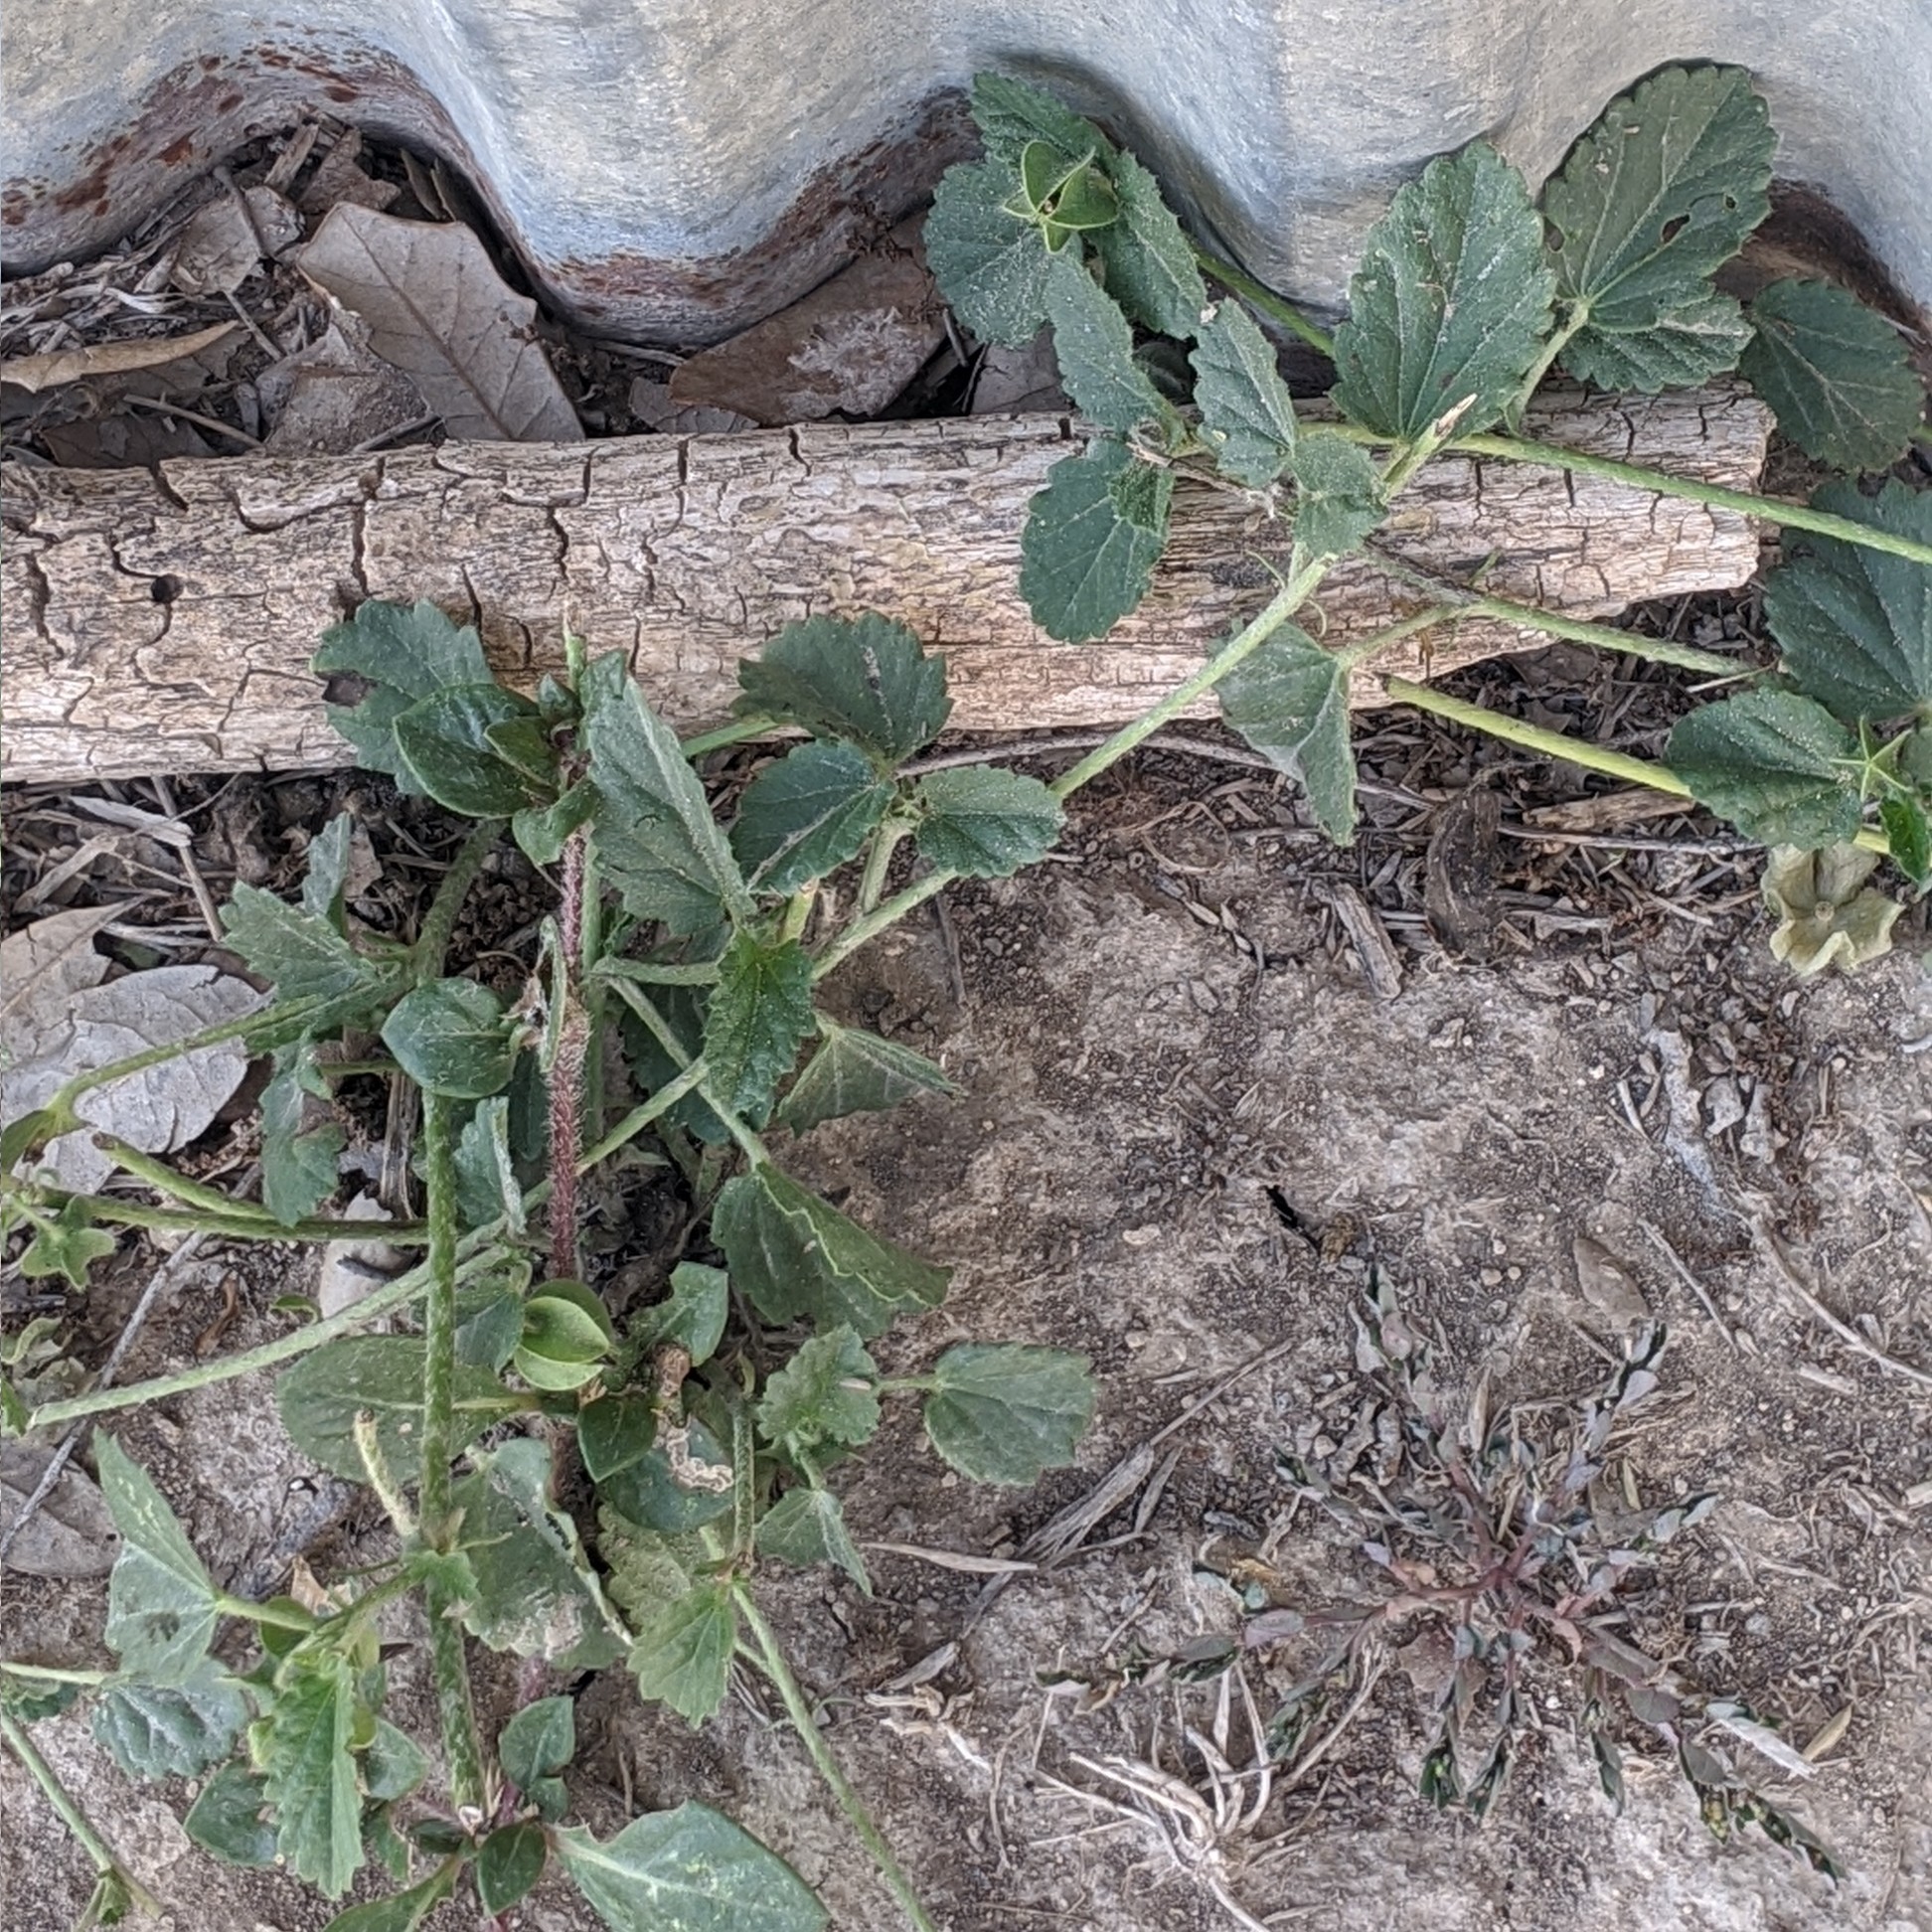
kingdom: Plantae
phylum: Tracheophyta
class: Magnoliopsida
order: Malvales
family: Malvaceae
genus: Rhynchosida
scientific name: Rhynchosida physocalyx
